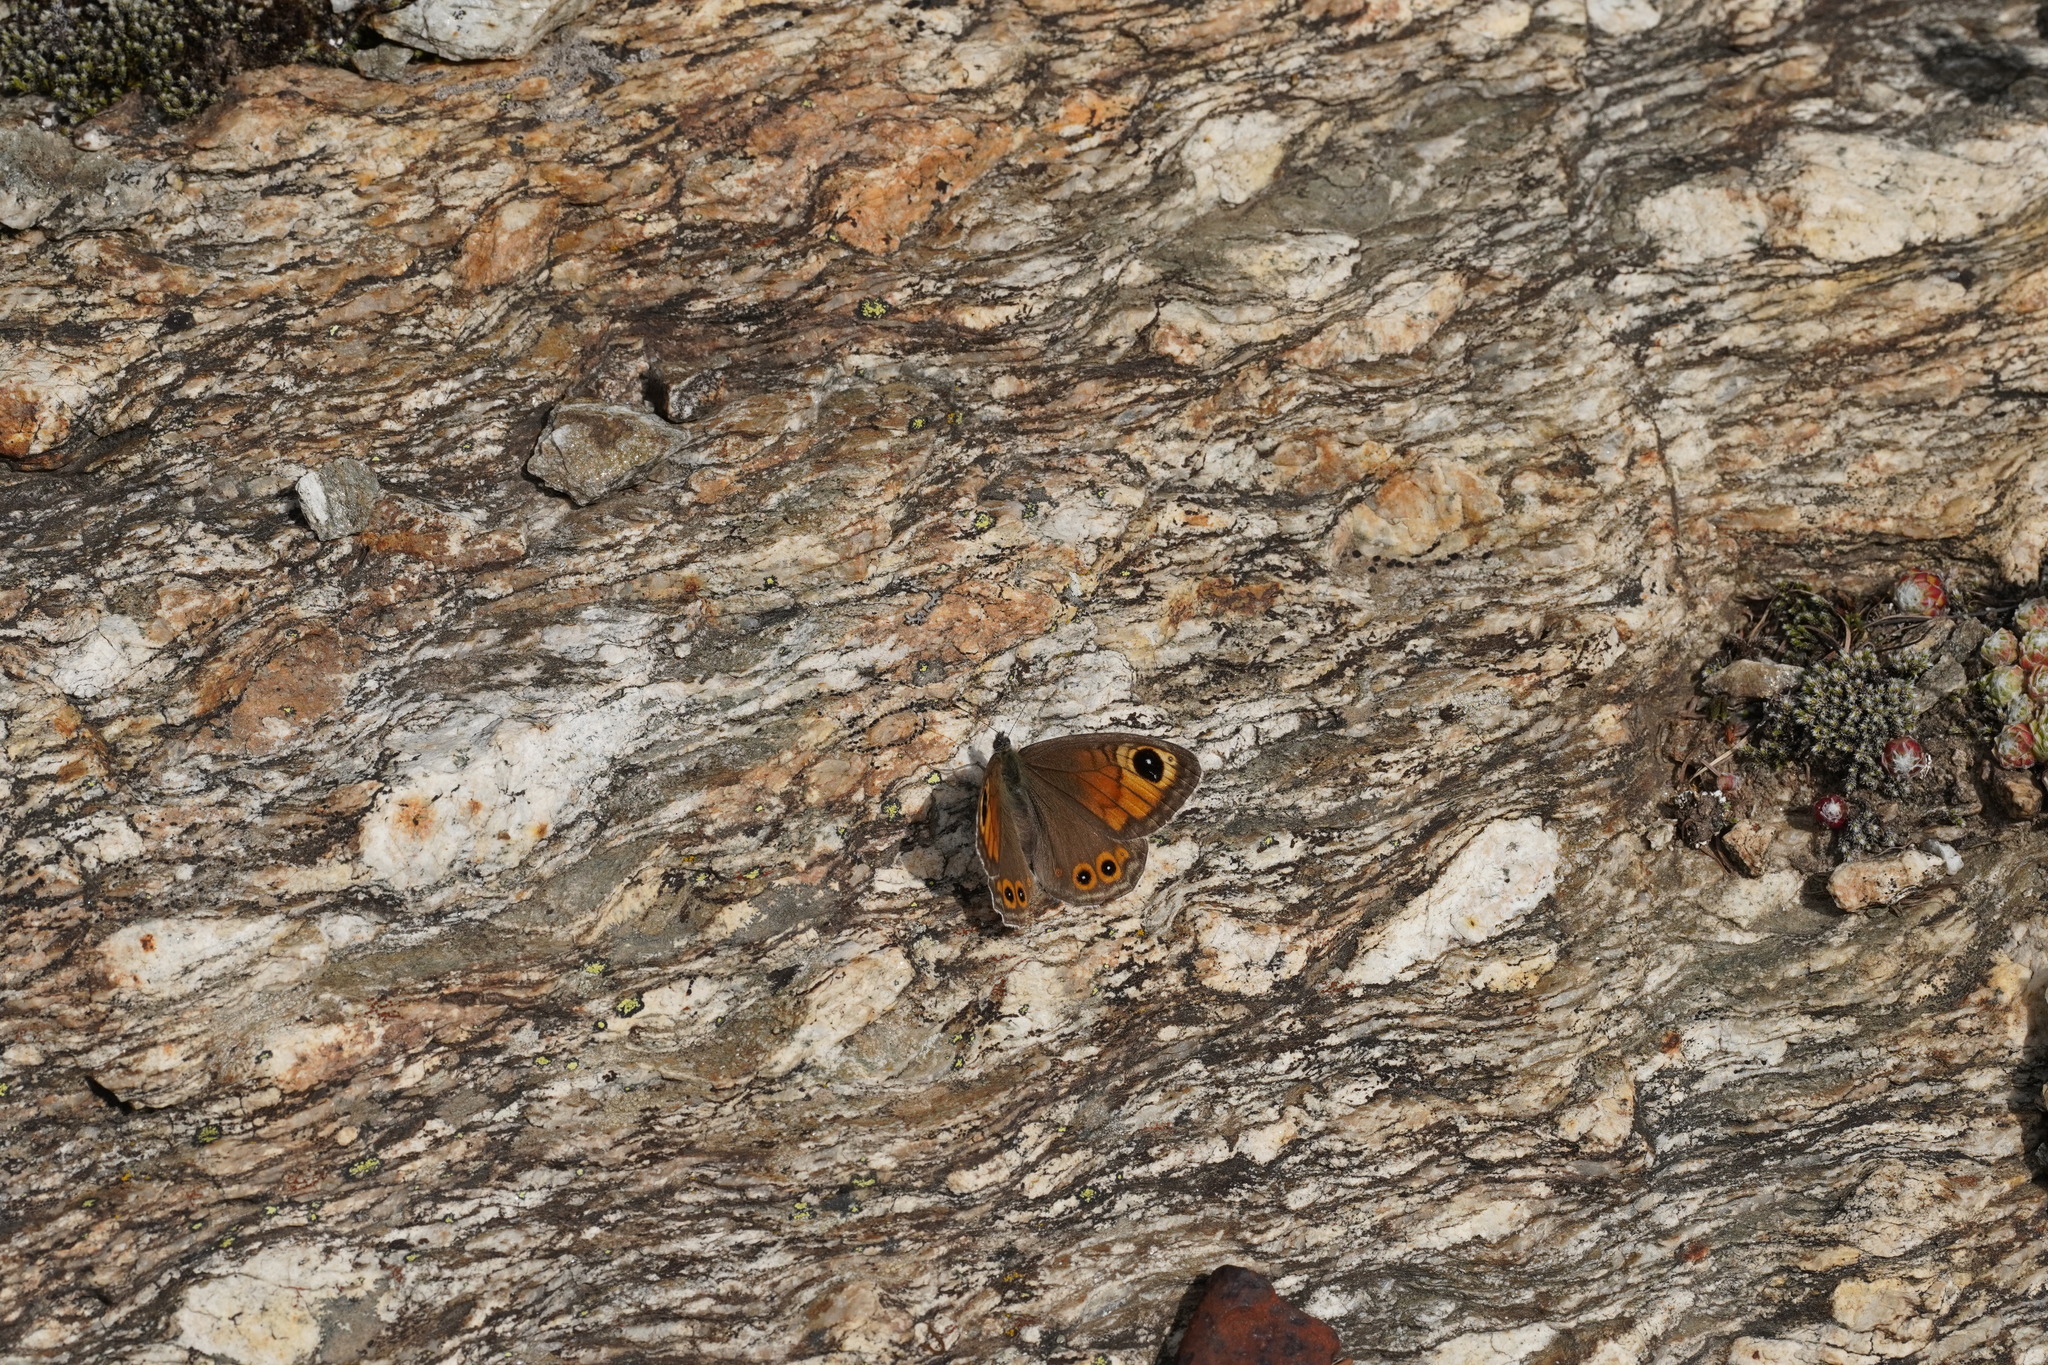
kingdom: Animalia
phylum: Arthropoda
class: Insecta
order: Lepidoptera
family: Nymphalidae
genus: Pararge
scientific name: Pararge Lasiommata maera
